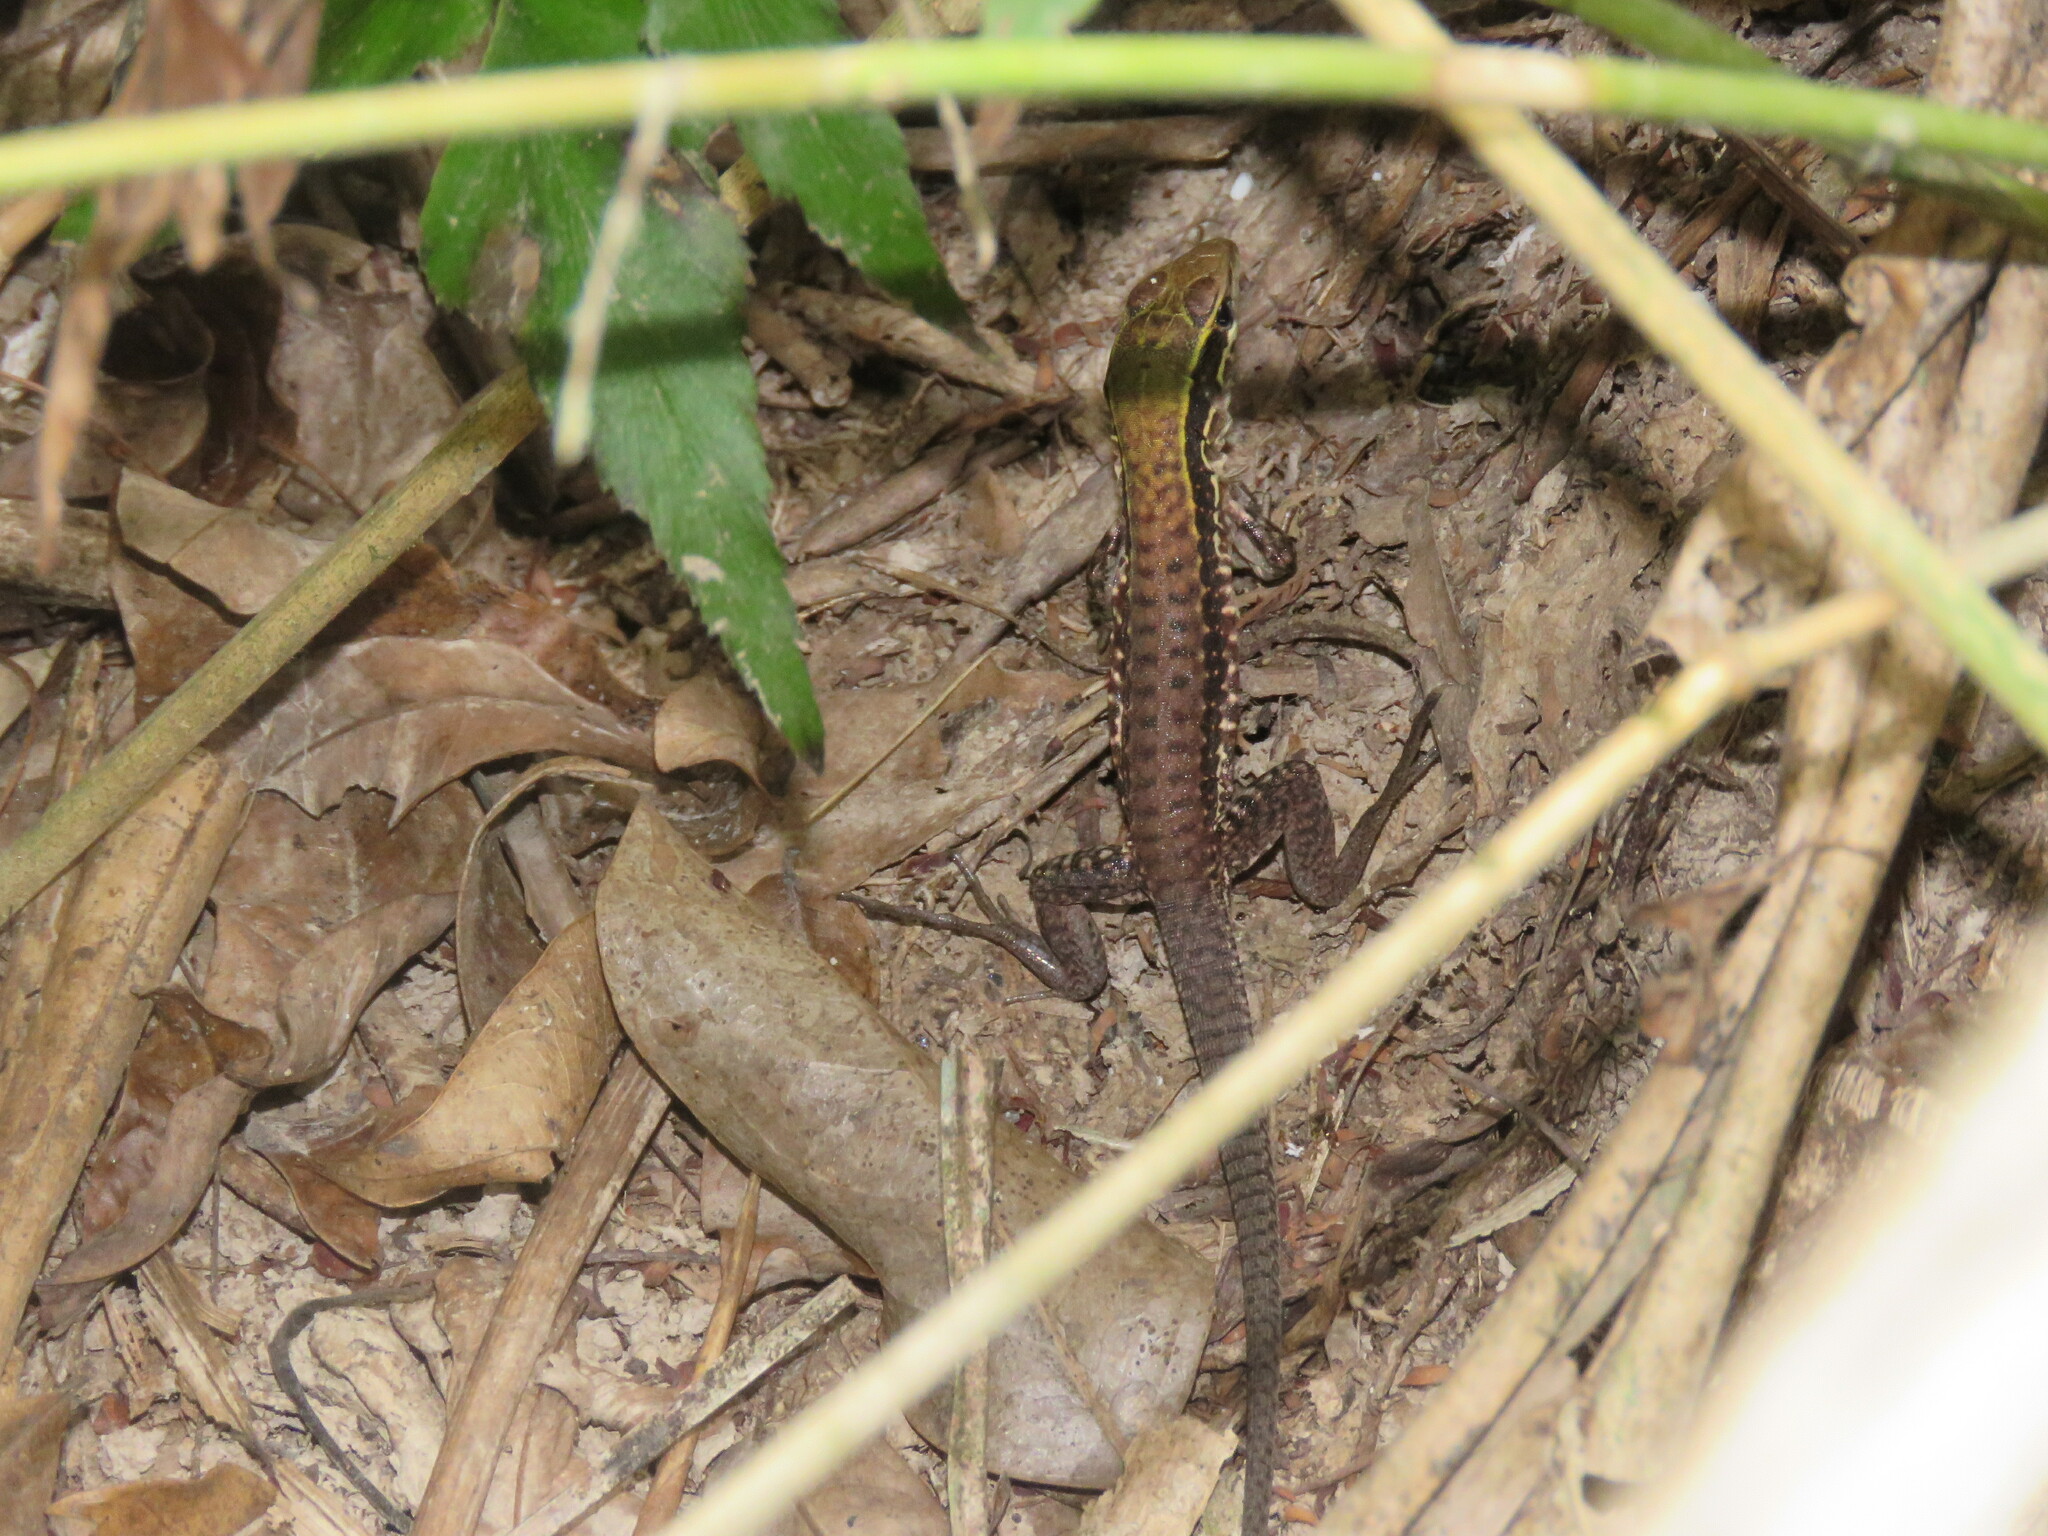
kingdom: Animalia
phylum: Chordata
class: Squamata
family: Teiidae
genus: Ameiva
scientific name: Ameiva ameiva
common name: Giant ameiva
